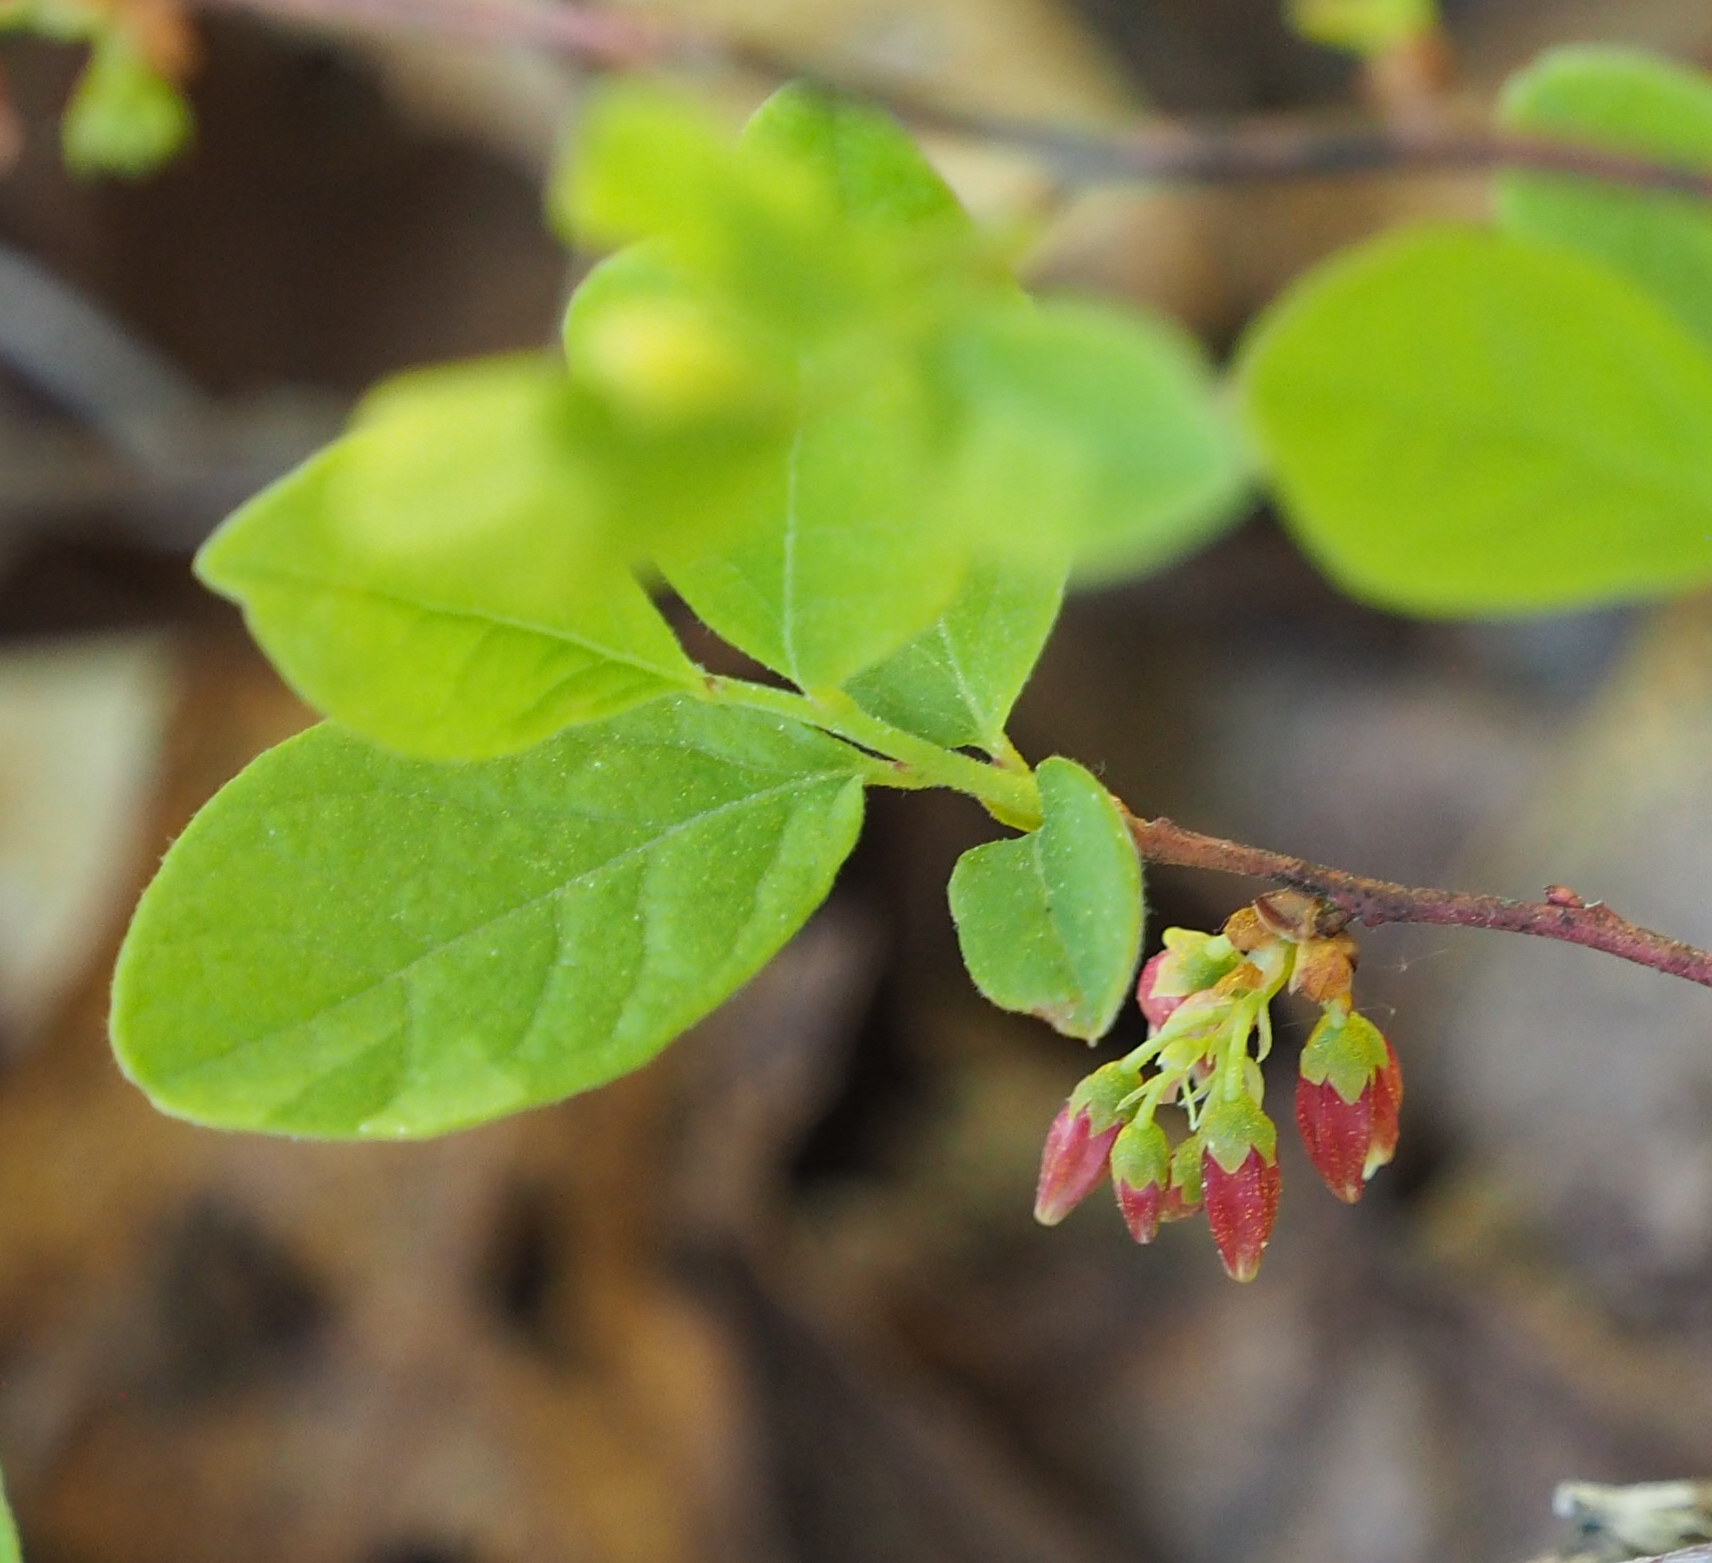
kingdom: Plantae
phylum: Tracheophyta
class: Magnoliopsida
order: Ericales
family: Ericaceae
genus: Gaylussacia
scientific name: Gaylussacia baccata
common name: Black huckleberry
